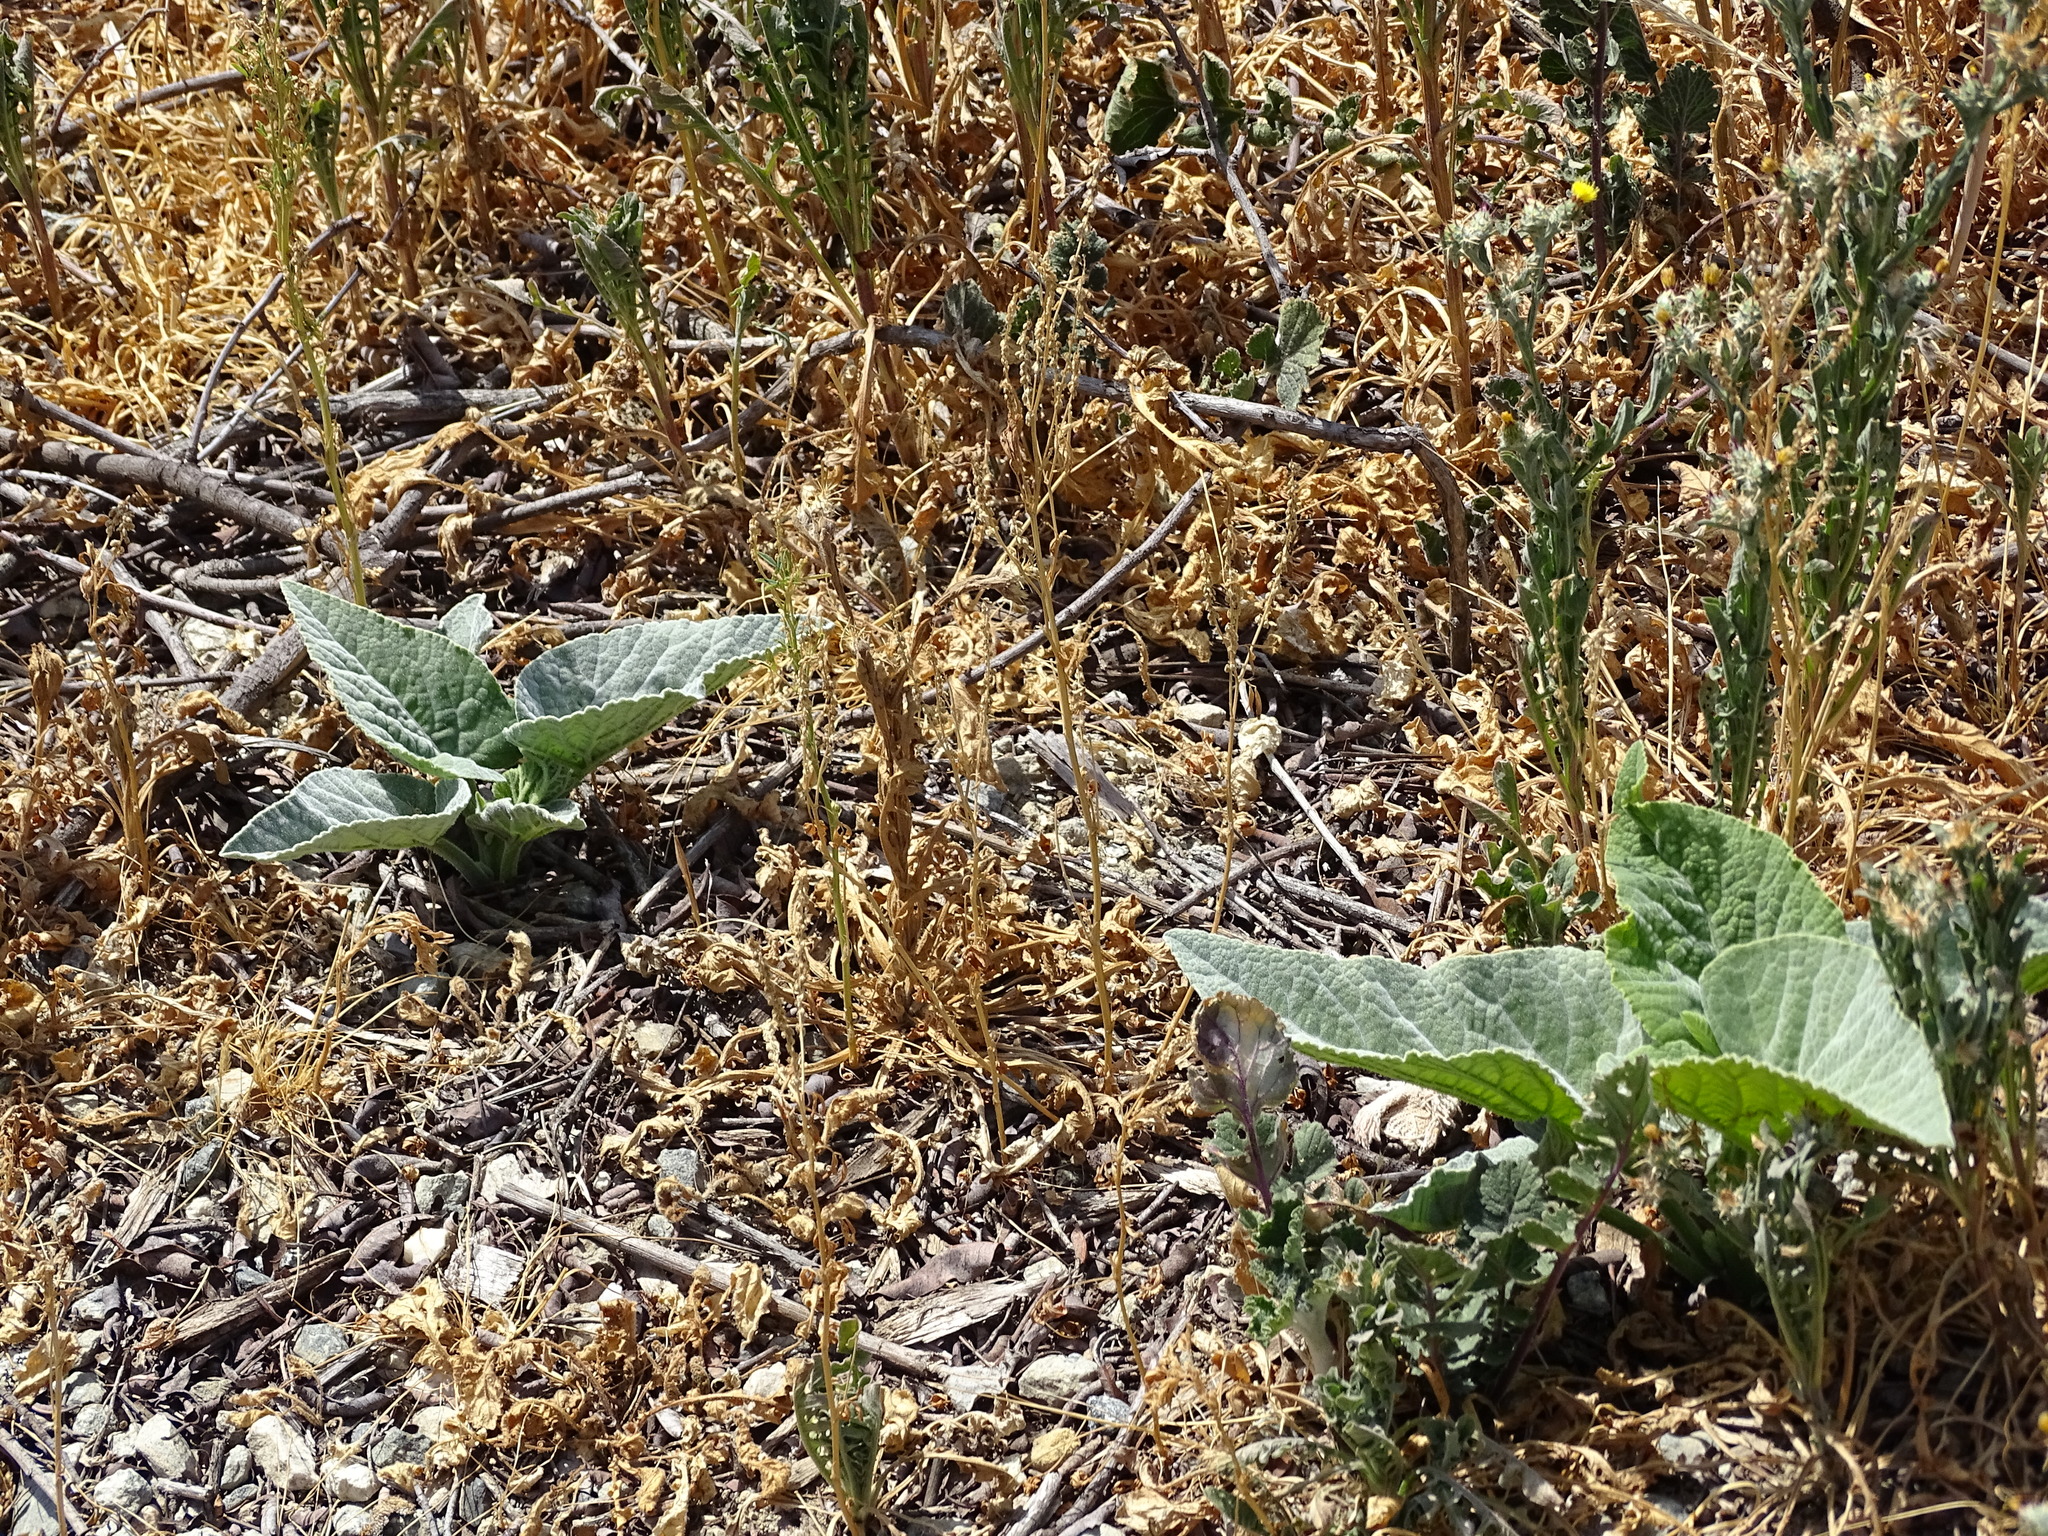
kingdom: Plantae
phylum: Tracheophyta
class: Magnoliopsida
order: Cucurbitales
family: Cucurbitaceae
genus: Cucurbita
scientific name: Cucurbita foetidissima
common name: Buffalo gourd
